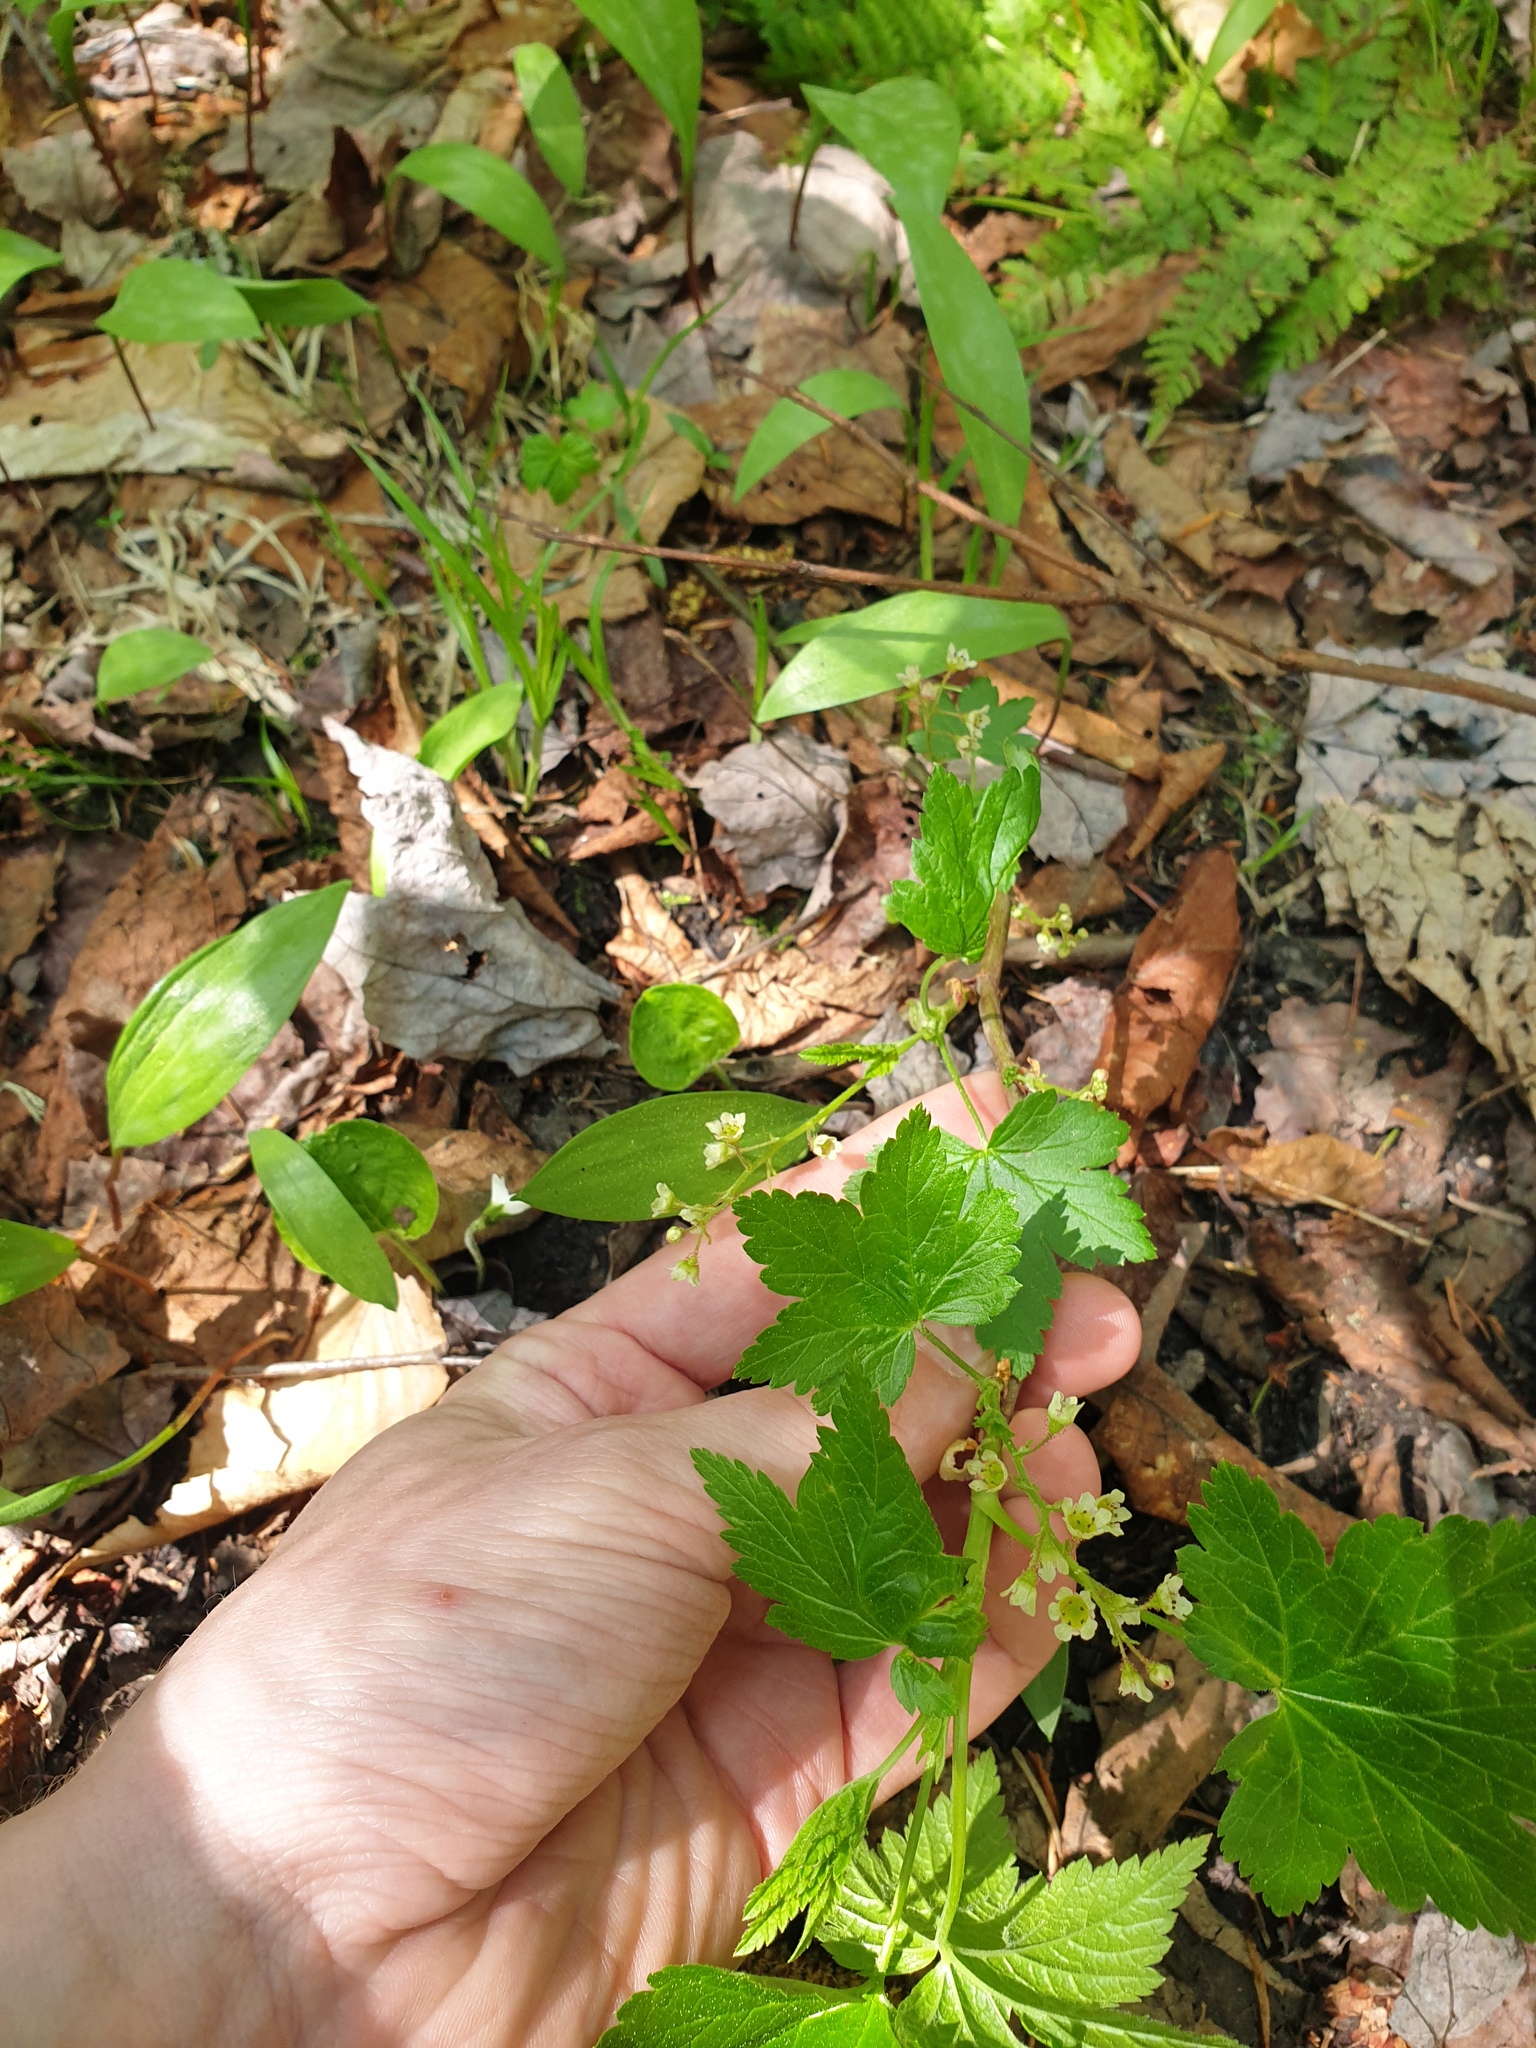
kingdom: Plantae
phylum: Tracheophyta
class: Liliopsida
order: Liliales
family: Liliaceae
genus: Erythronium
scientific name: Erythronium americanum
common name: Yellow adder's-tongue
